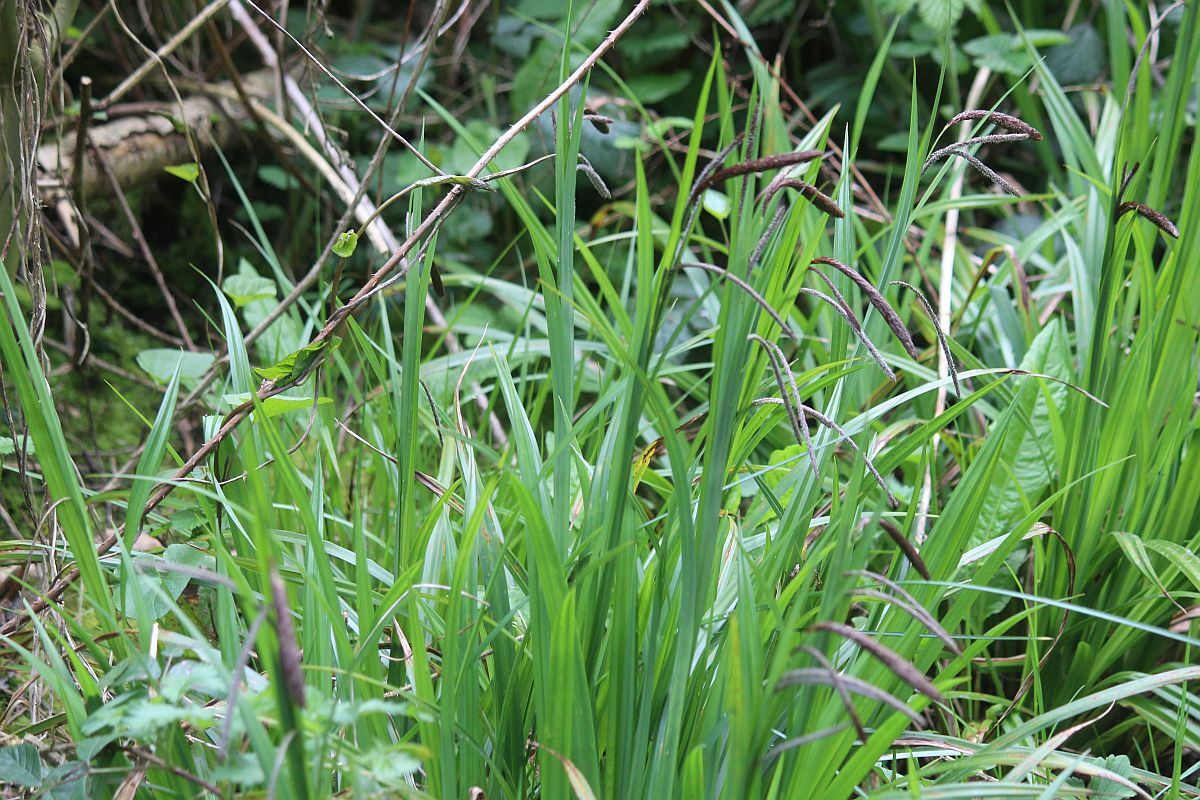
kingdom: Plantae
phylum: Tracheophyta
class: Liliopsida
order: Poales
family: Cyperaceae
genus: Carex
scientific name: Carex pendula
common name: Pendulous sedge
